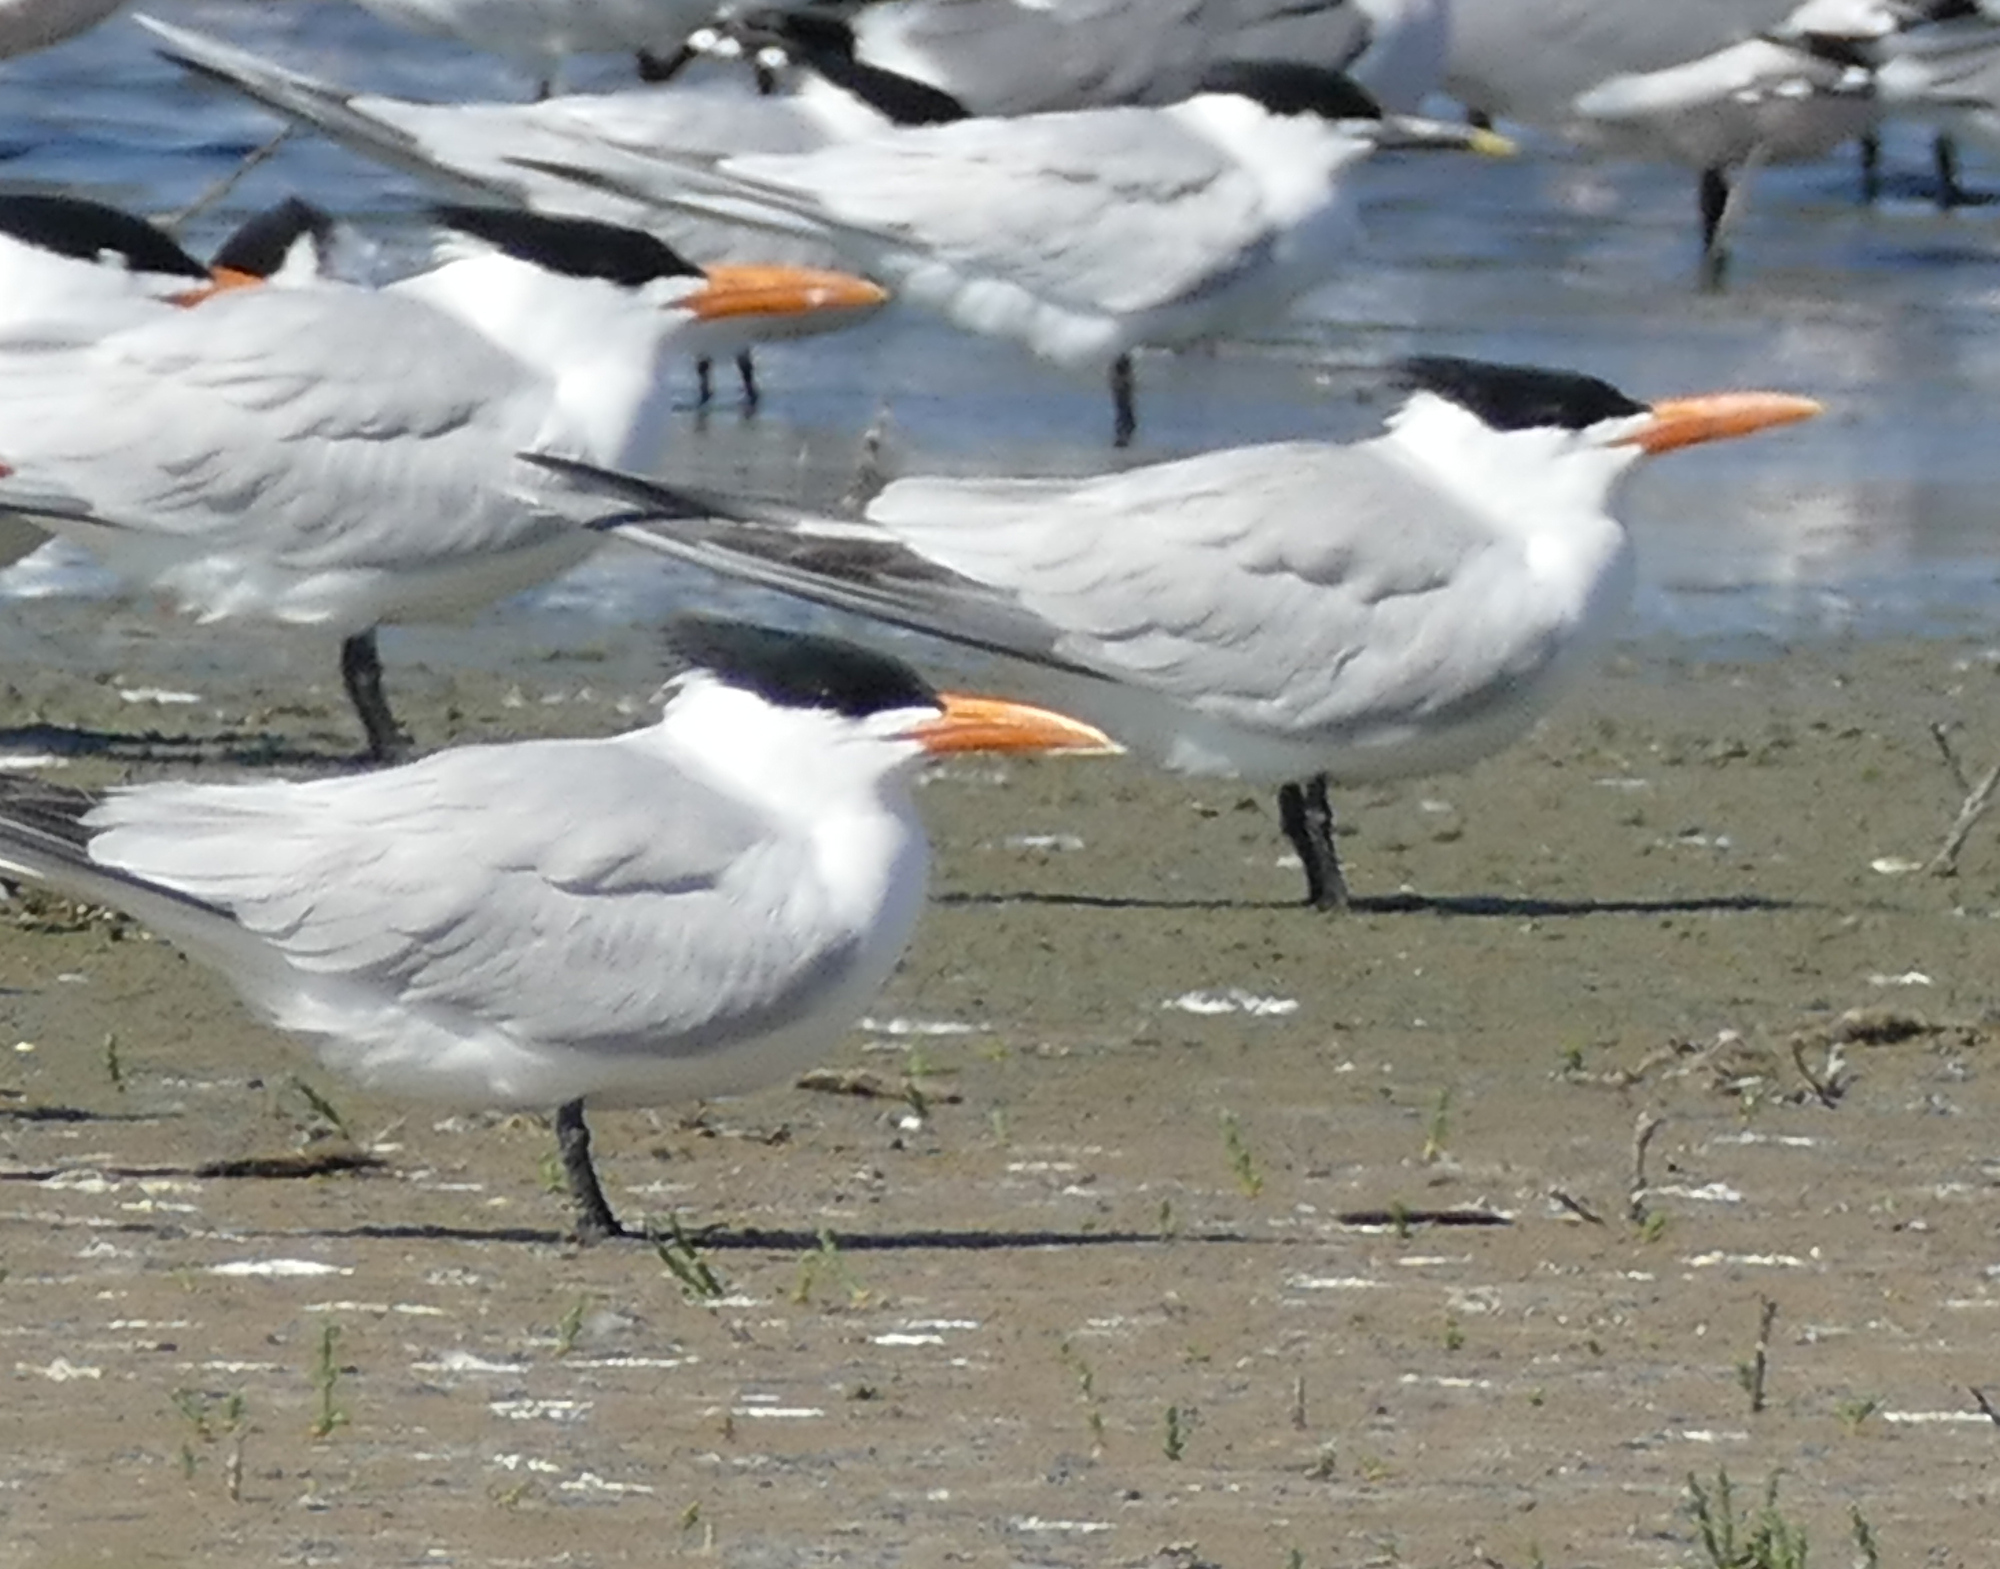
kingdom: Animalia
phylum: Chordata
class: Aves
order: Charadriiformes
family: Laridae
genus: Thalasseus
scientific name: Thalasseus maximus
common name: Royal tern
